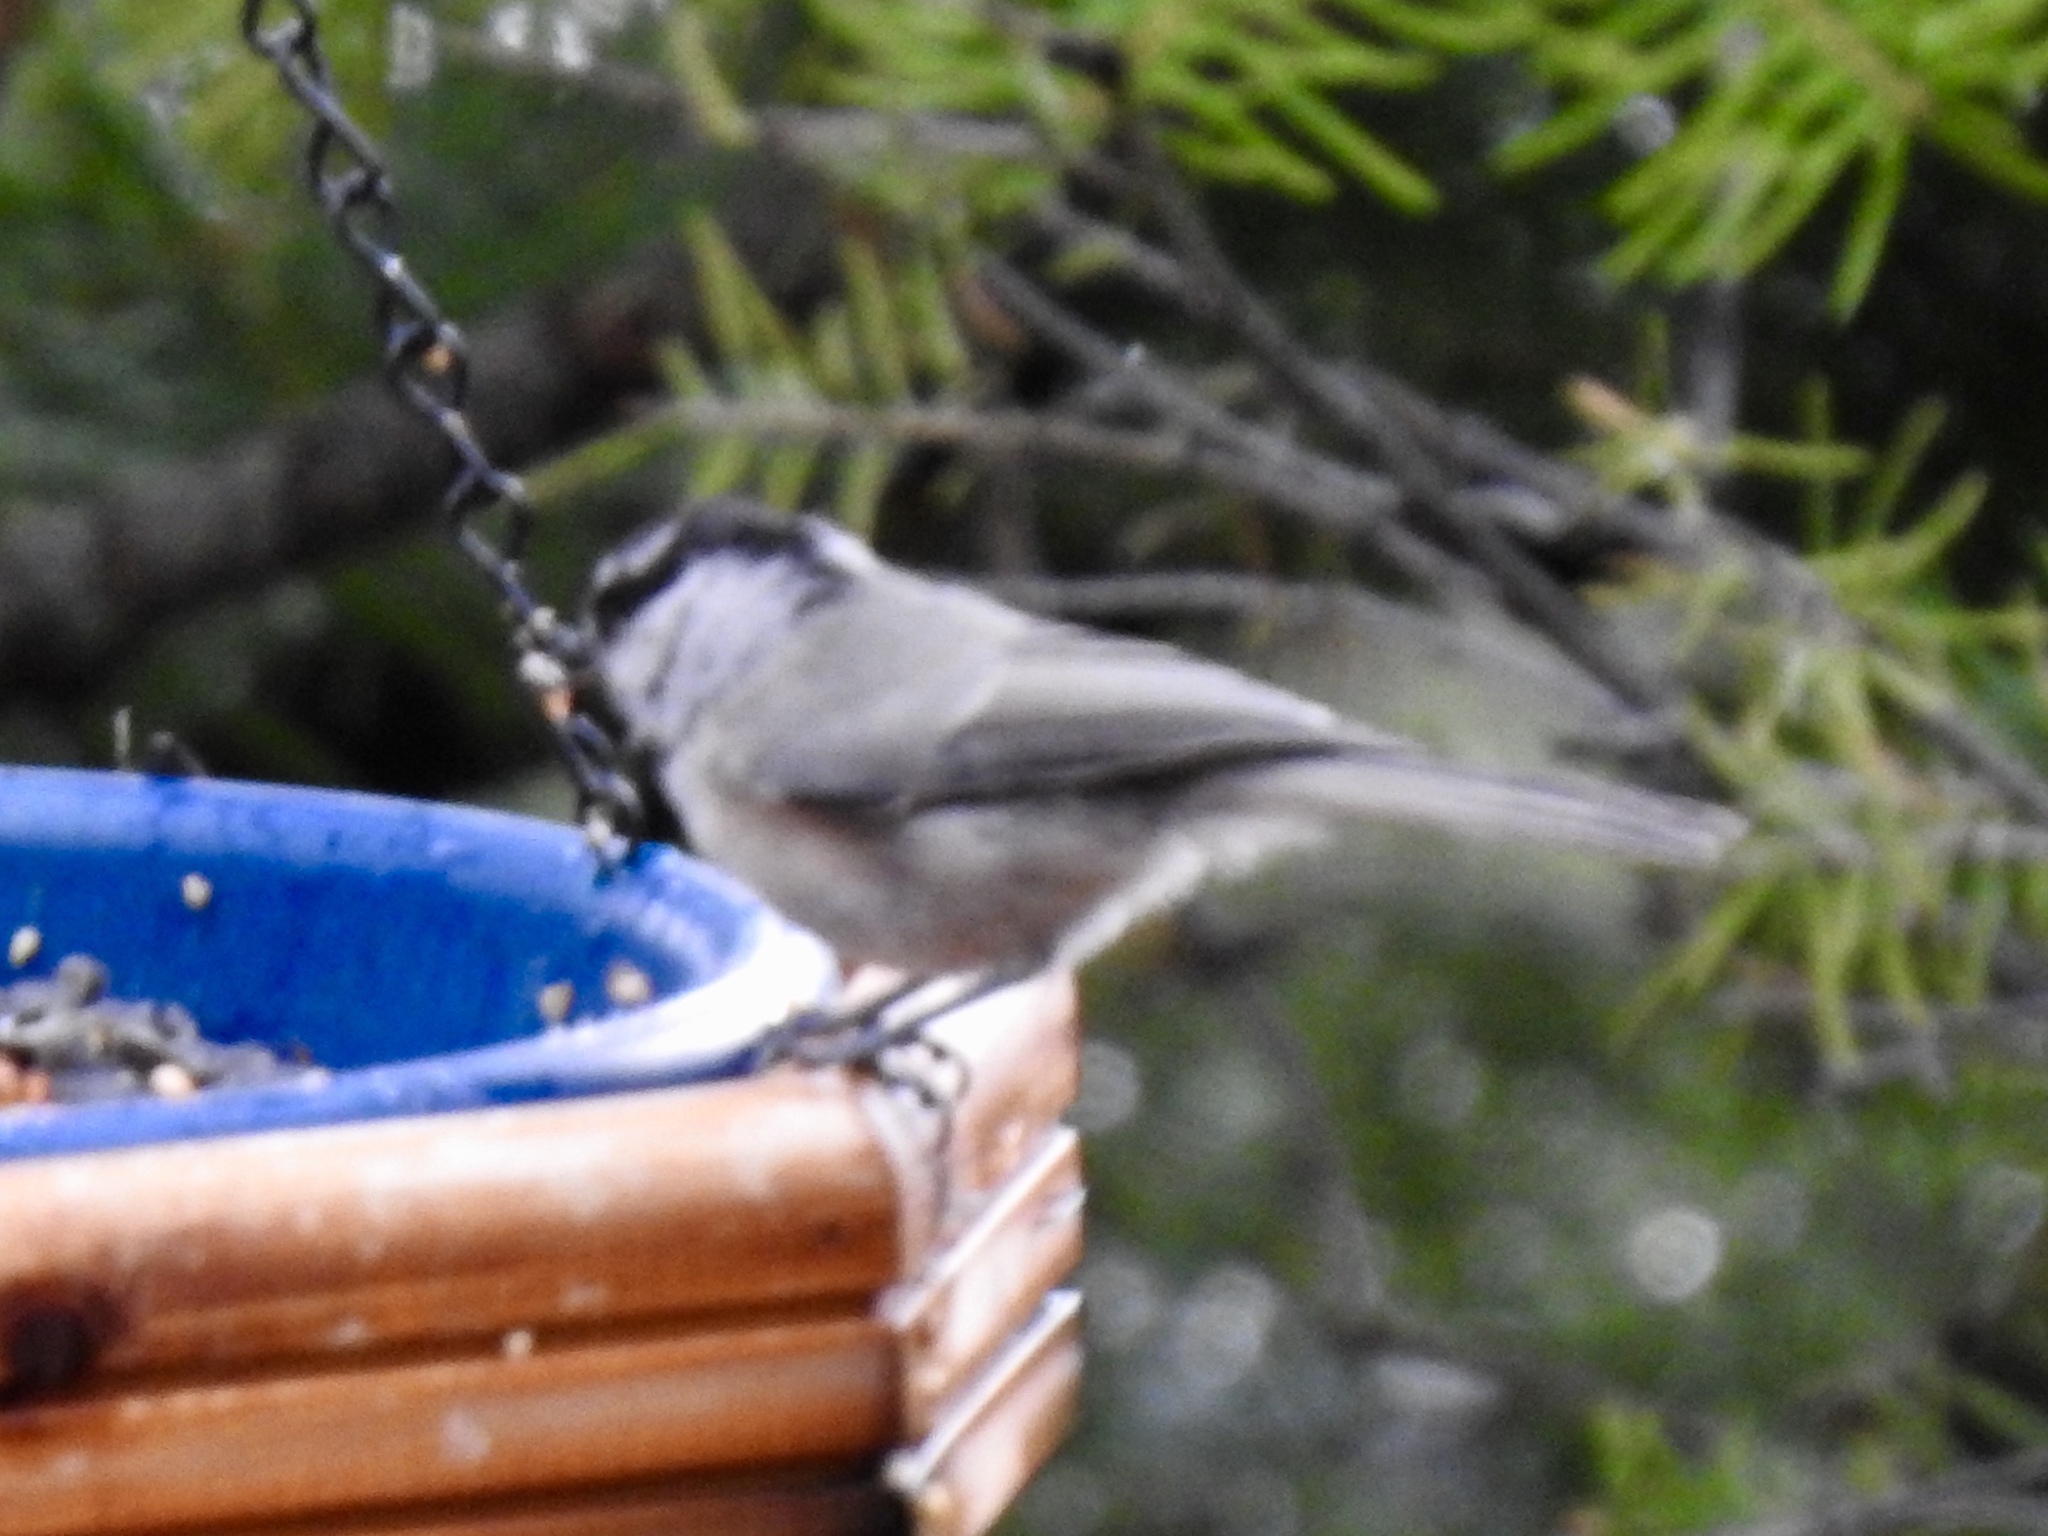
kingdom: Animalia
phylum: Chordata
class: Aves
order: Passeriformes
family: Paridae
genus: Poecile
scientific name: Poecile gambeli
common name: Mountain chickadee
